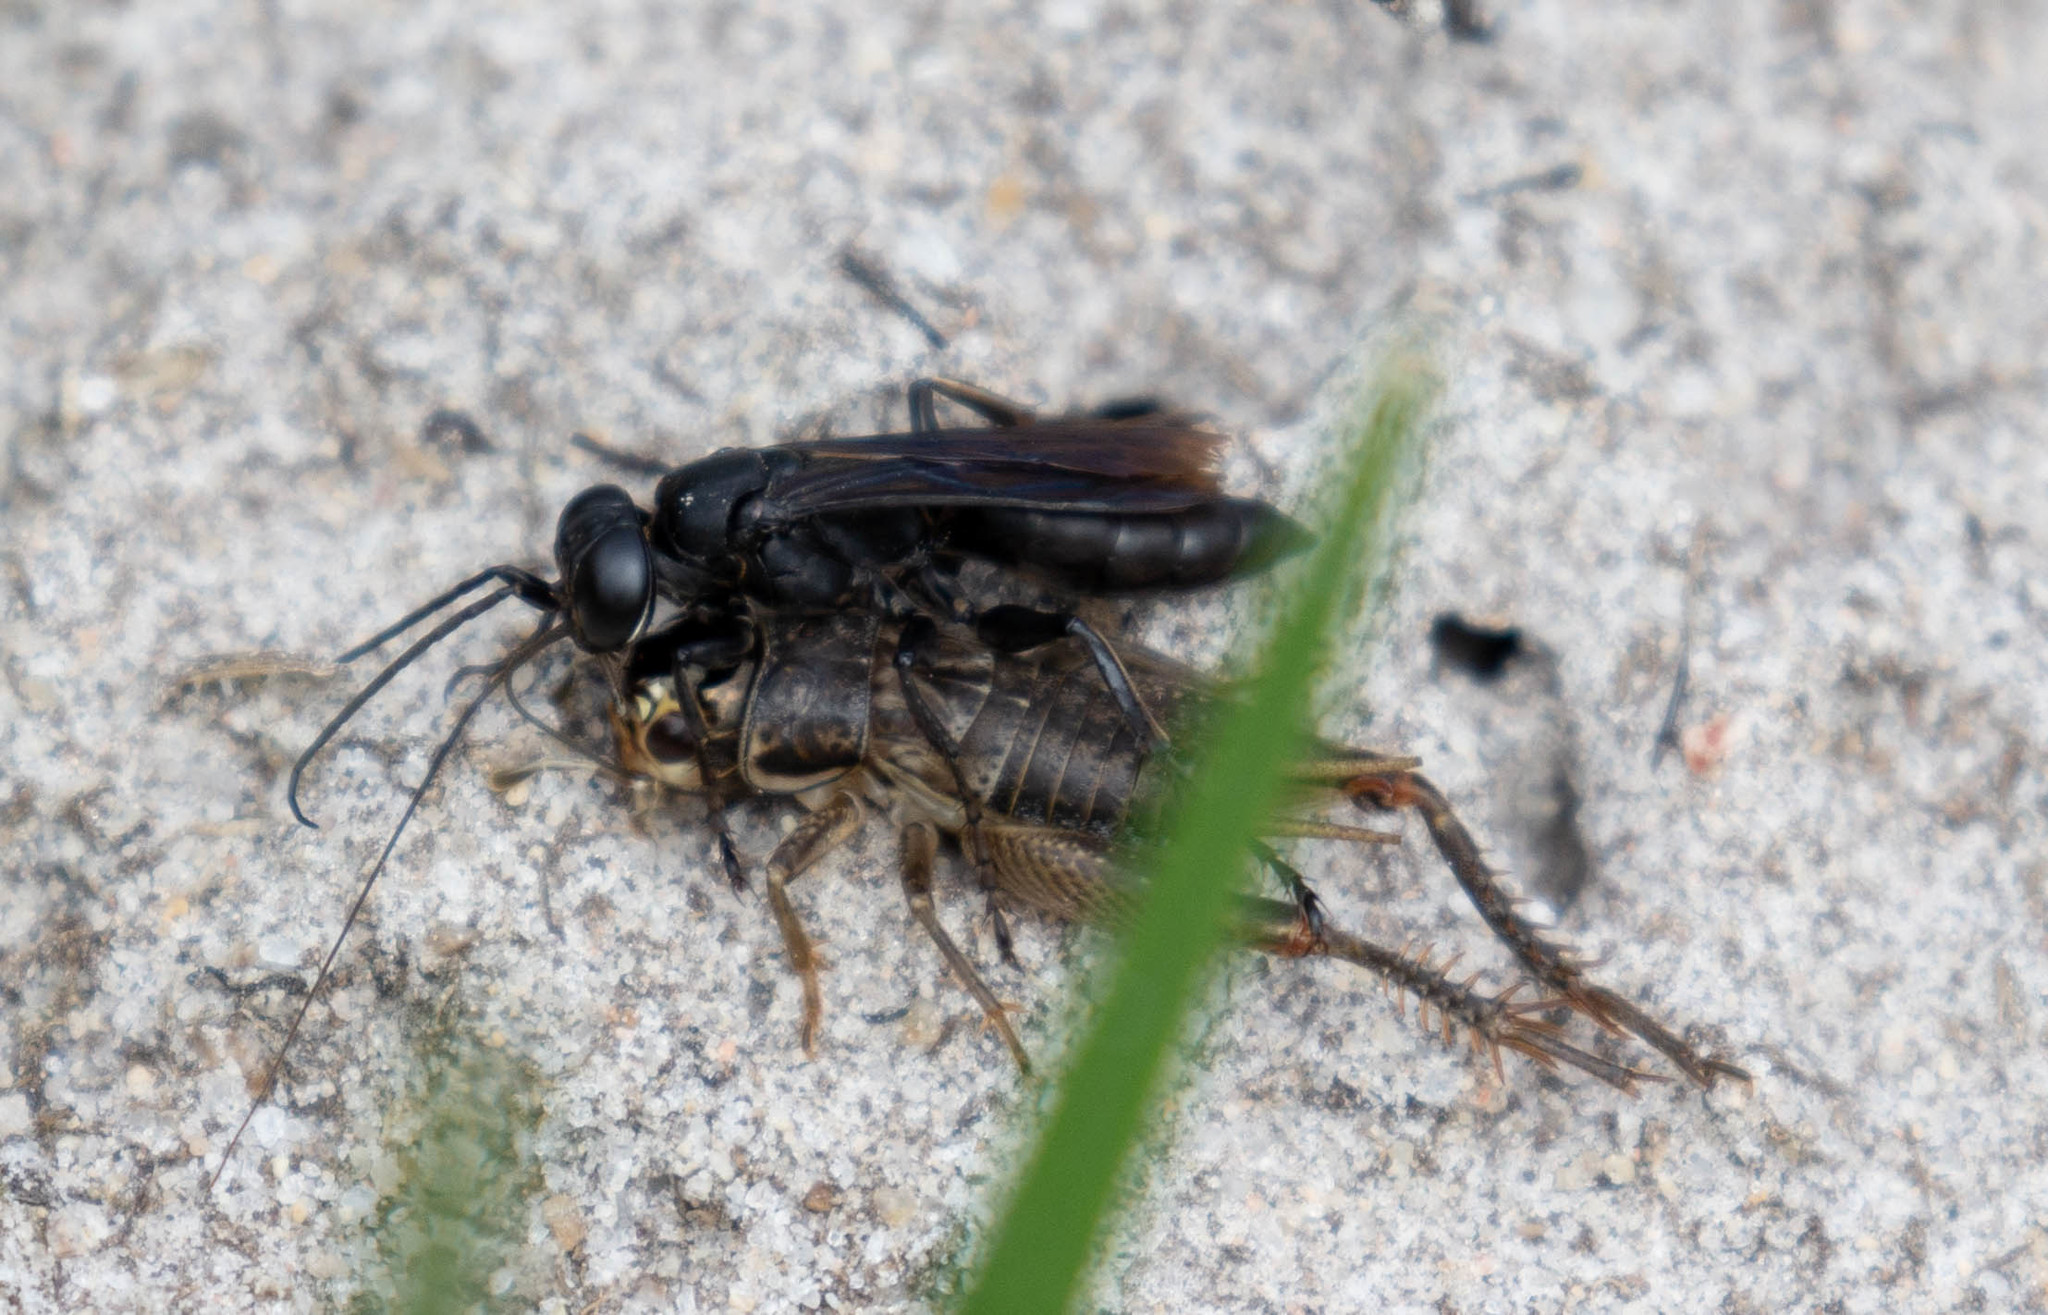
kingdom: Animalia
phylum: Arthropoda
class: Insecta
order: Orthoptera
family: Gryllidae
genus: Miogryllus
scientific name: Miogryllus verticalis
